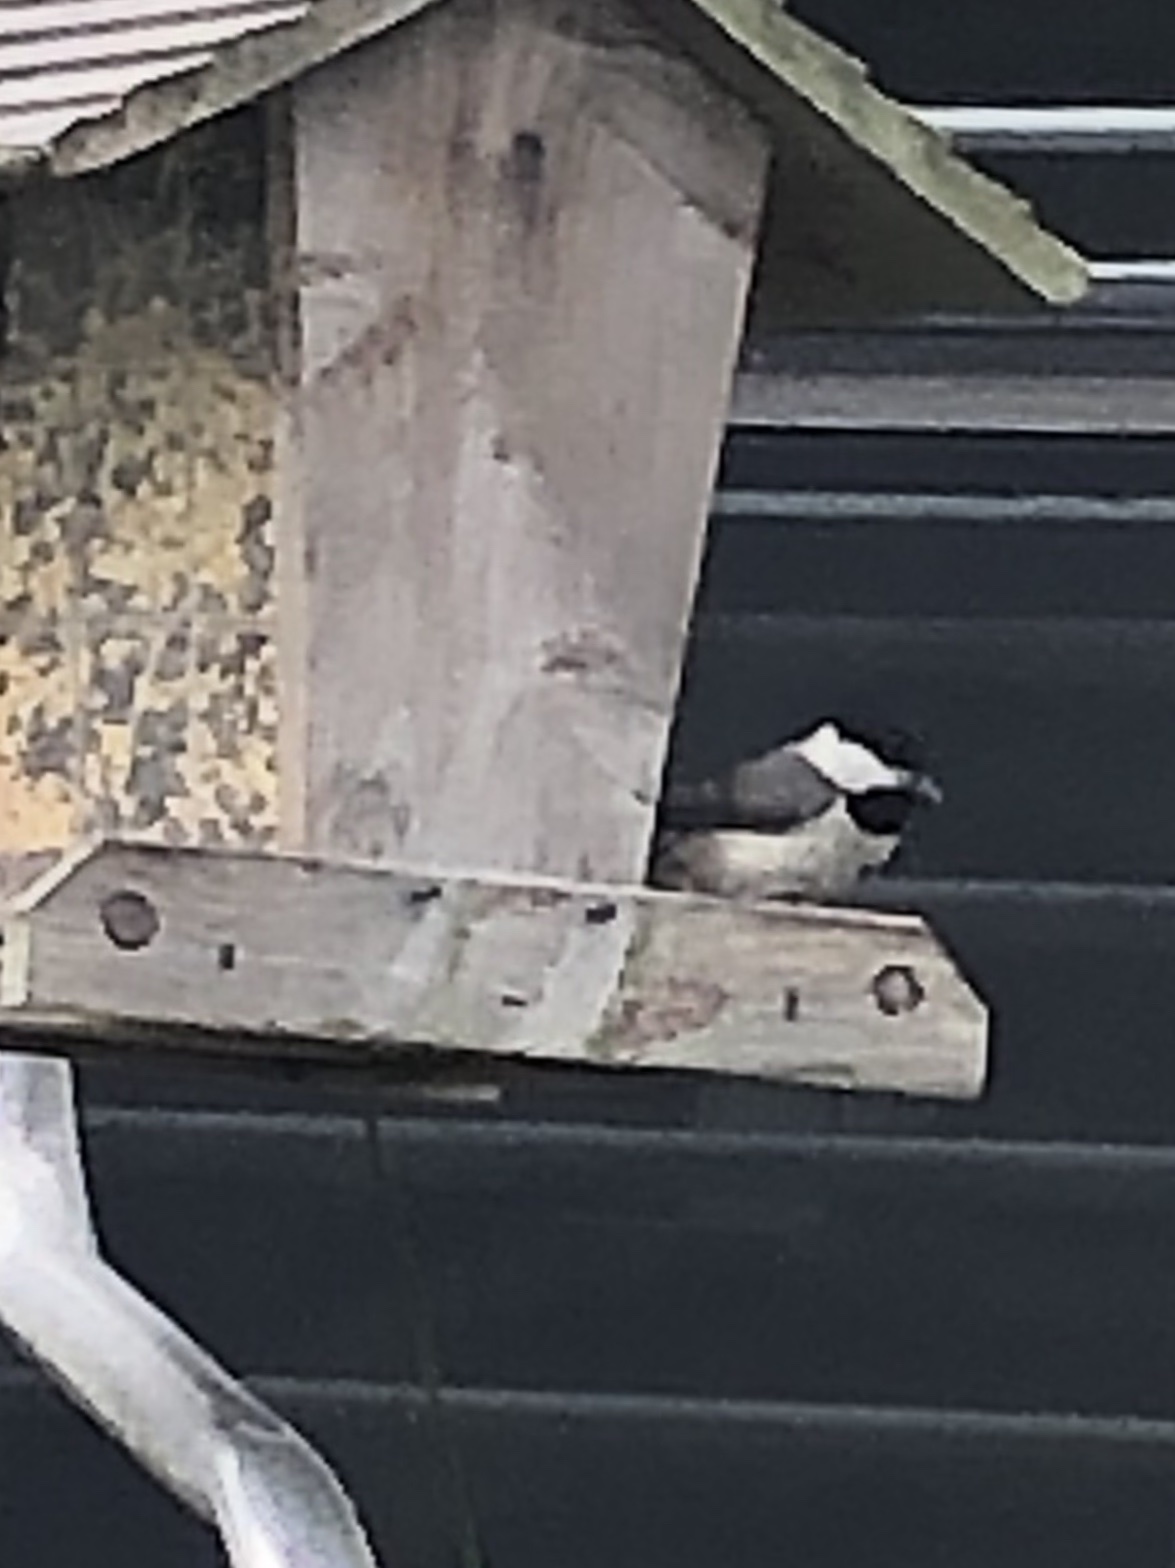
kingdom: Animalia
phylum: Chordata
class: Aves
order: Passeriformes
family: Paridae
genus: Poecile
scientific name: Poecile carolinensis
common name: Carolina chickadee
